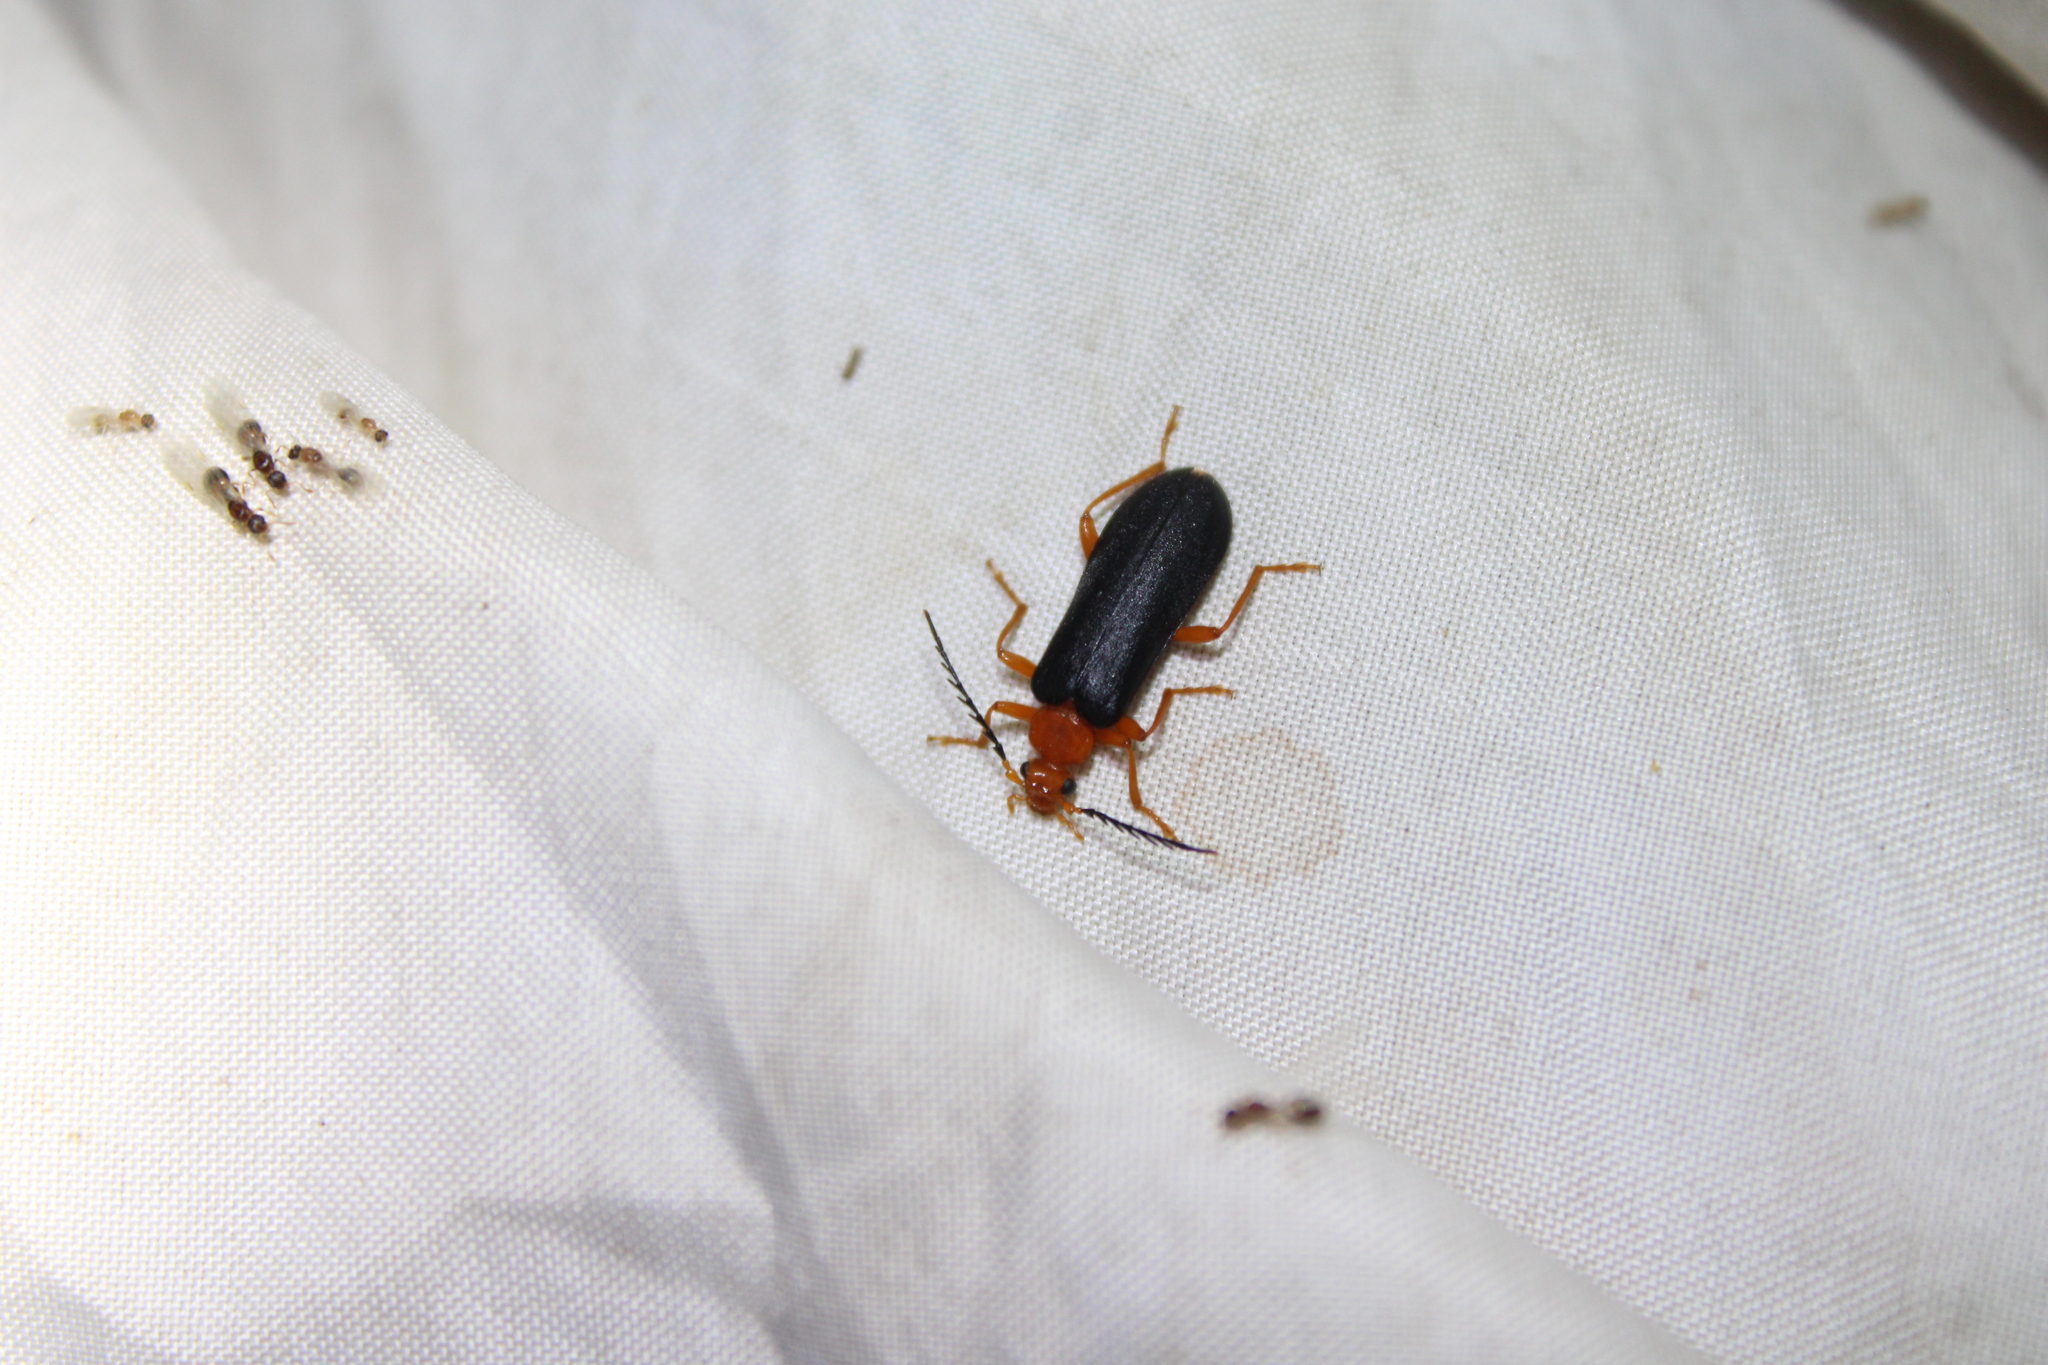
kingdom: Animalia
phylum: Arthropoda
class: Insecta
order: Coleoptera
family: Pyrochroidae
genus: Neopyrochroa
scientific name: Neopyrochroa flabellata
